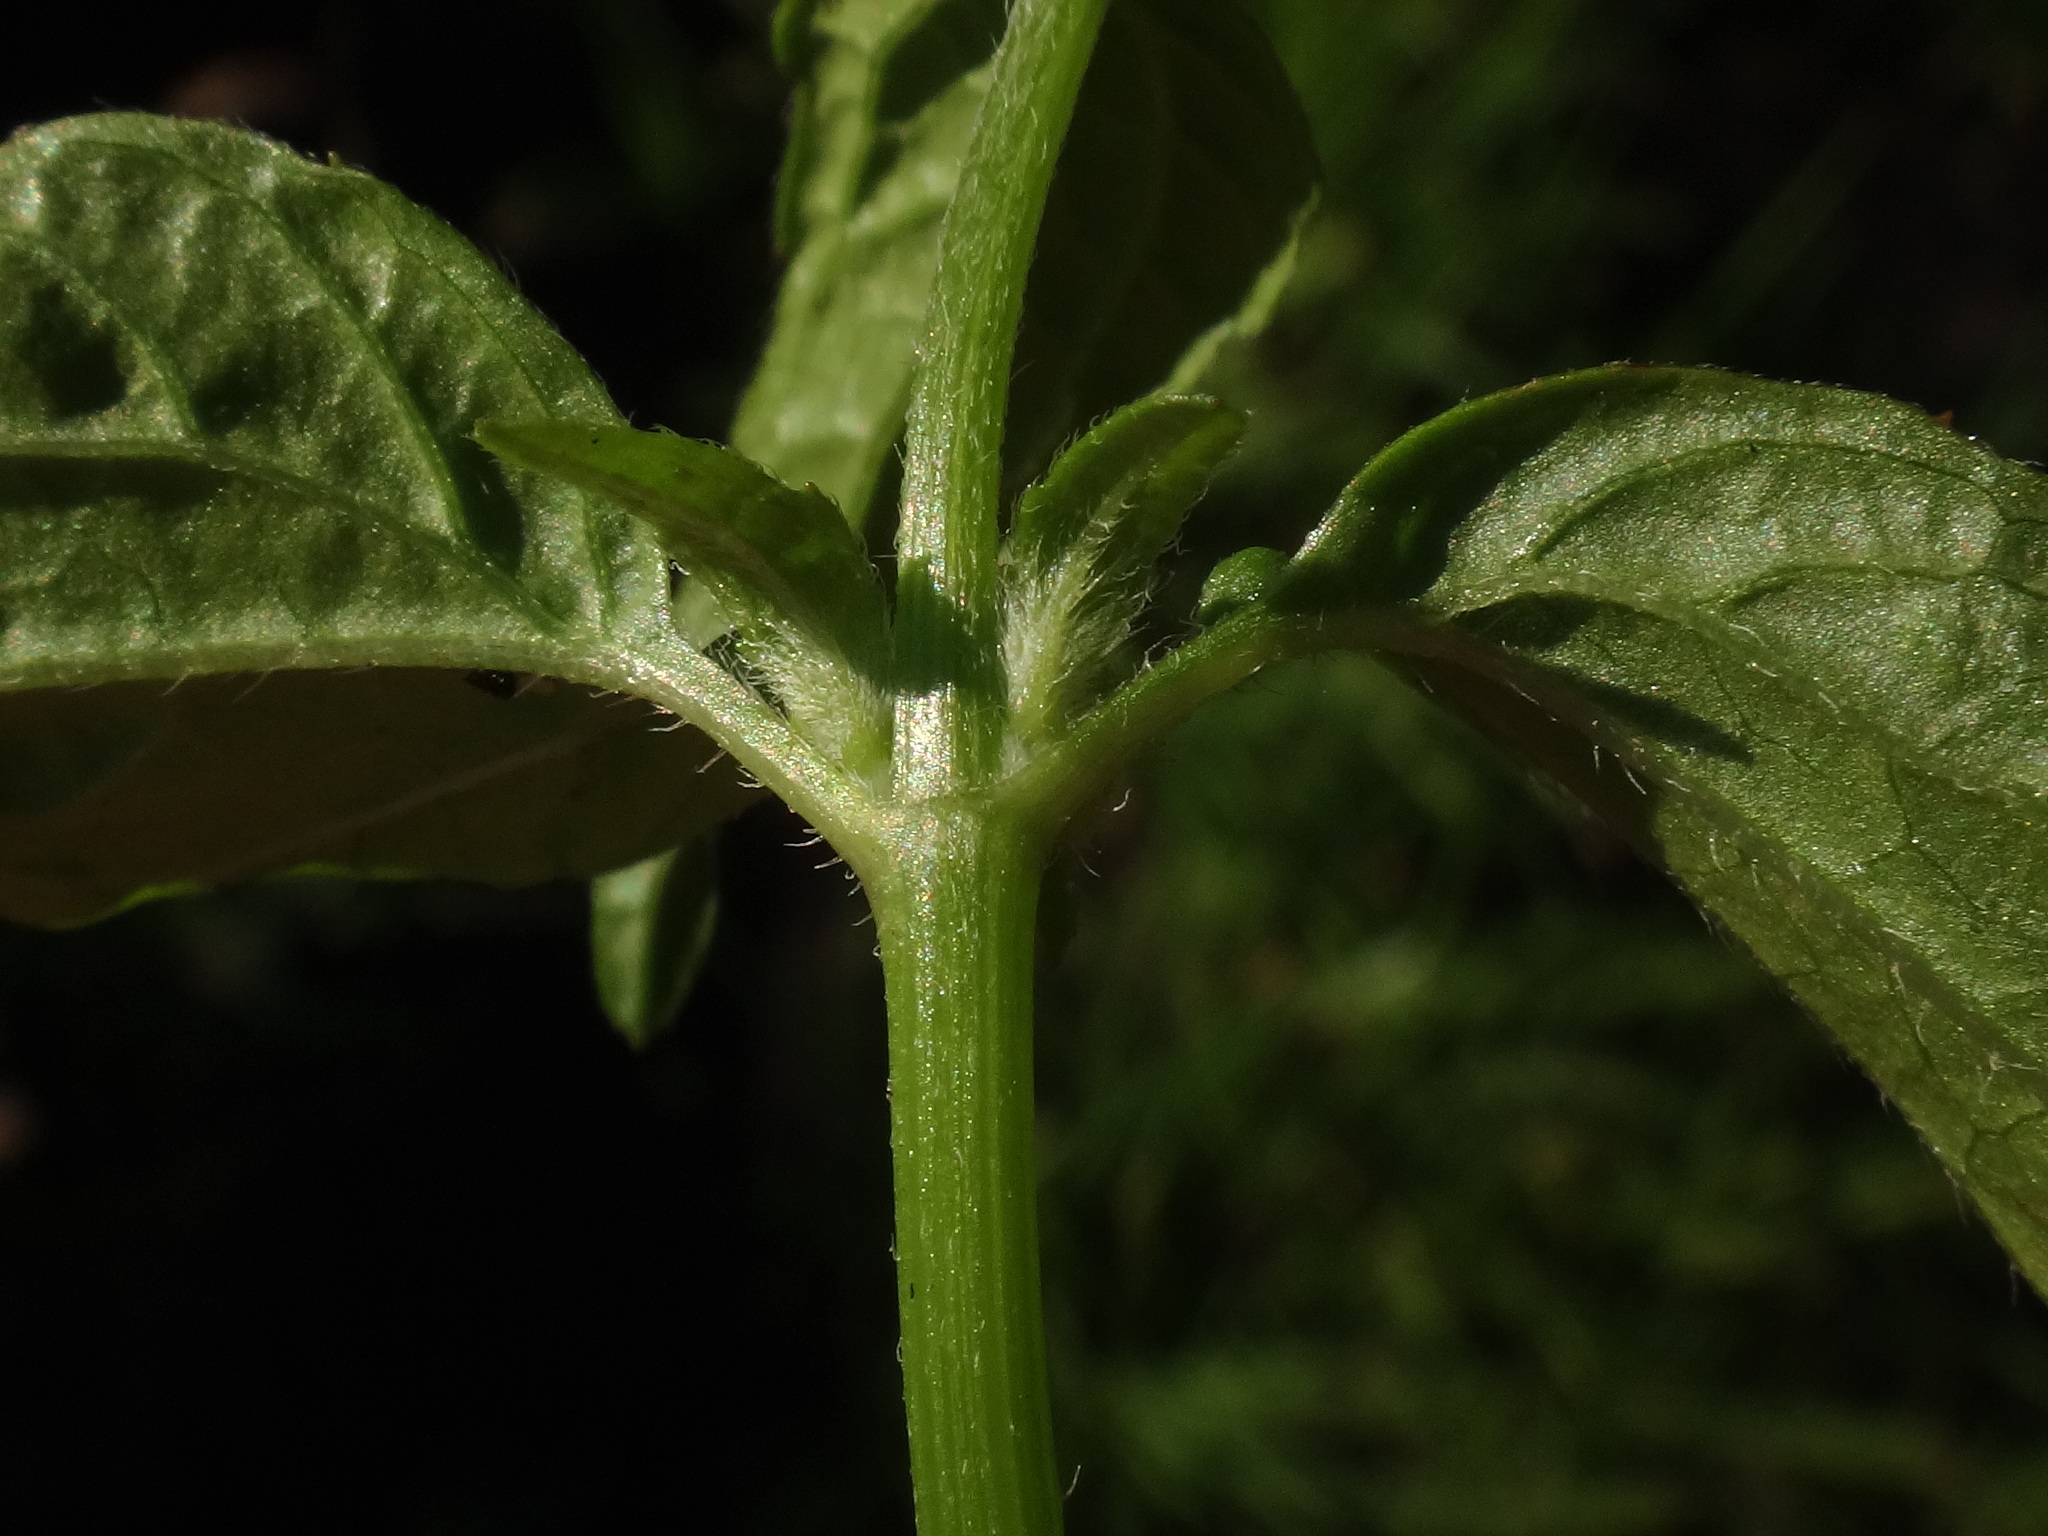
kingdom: Plantae
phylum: Tracheophyta
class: Magnoliopsida
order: Asterales
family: Asteraceae
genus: Galinsoga
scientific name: Galinsoga parviflora
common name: Gallant soldier
